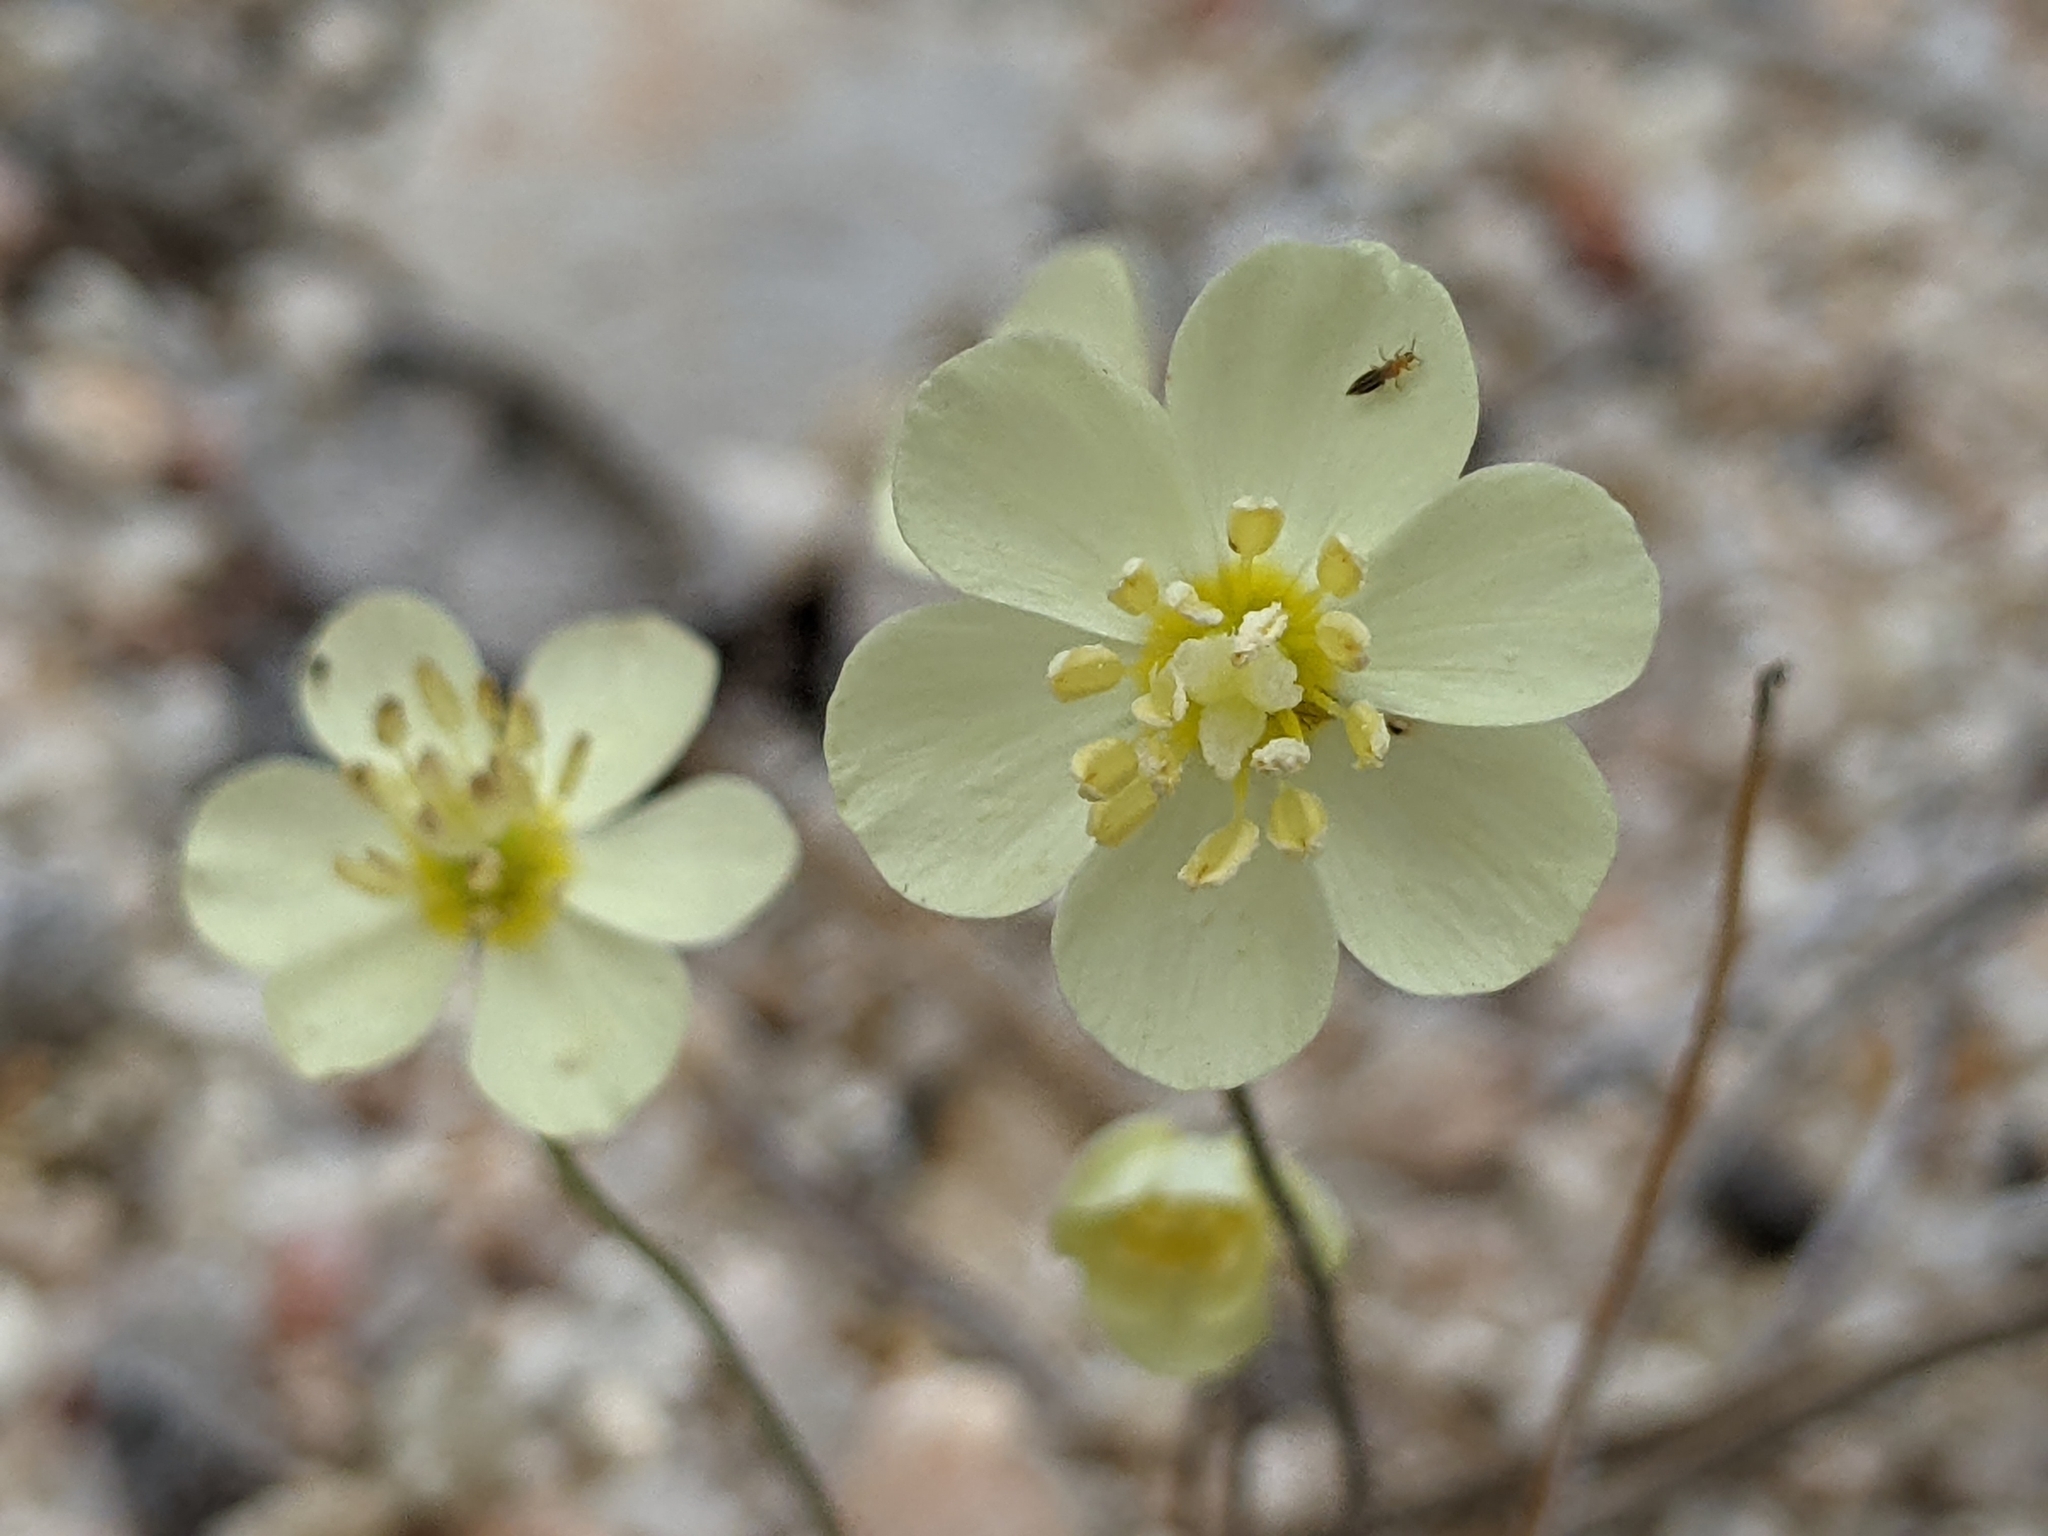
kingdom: Plantae
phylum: Tracheophyta
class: Magnoliopsida
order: Ranunculales
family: Papaveraceae
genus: Platystigma
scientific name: Platystigma lineare
